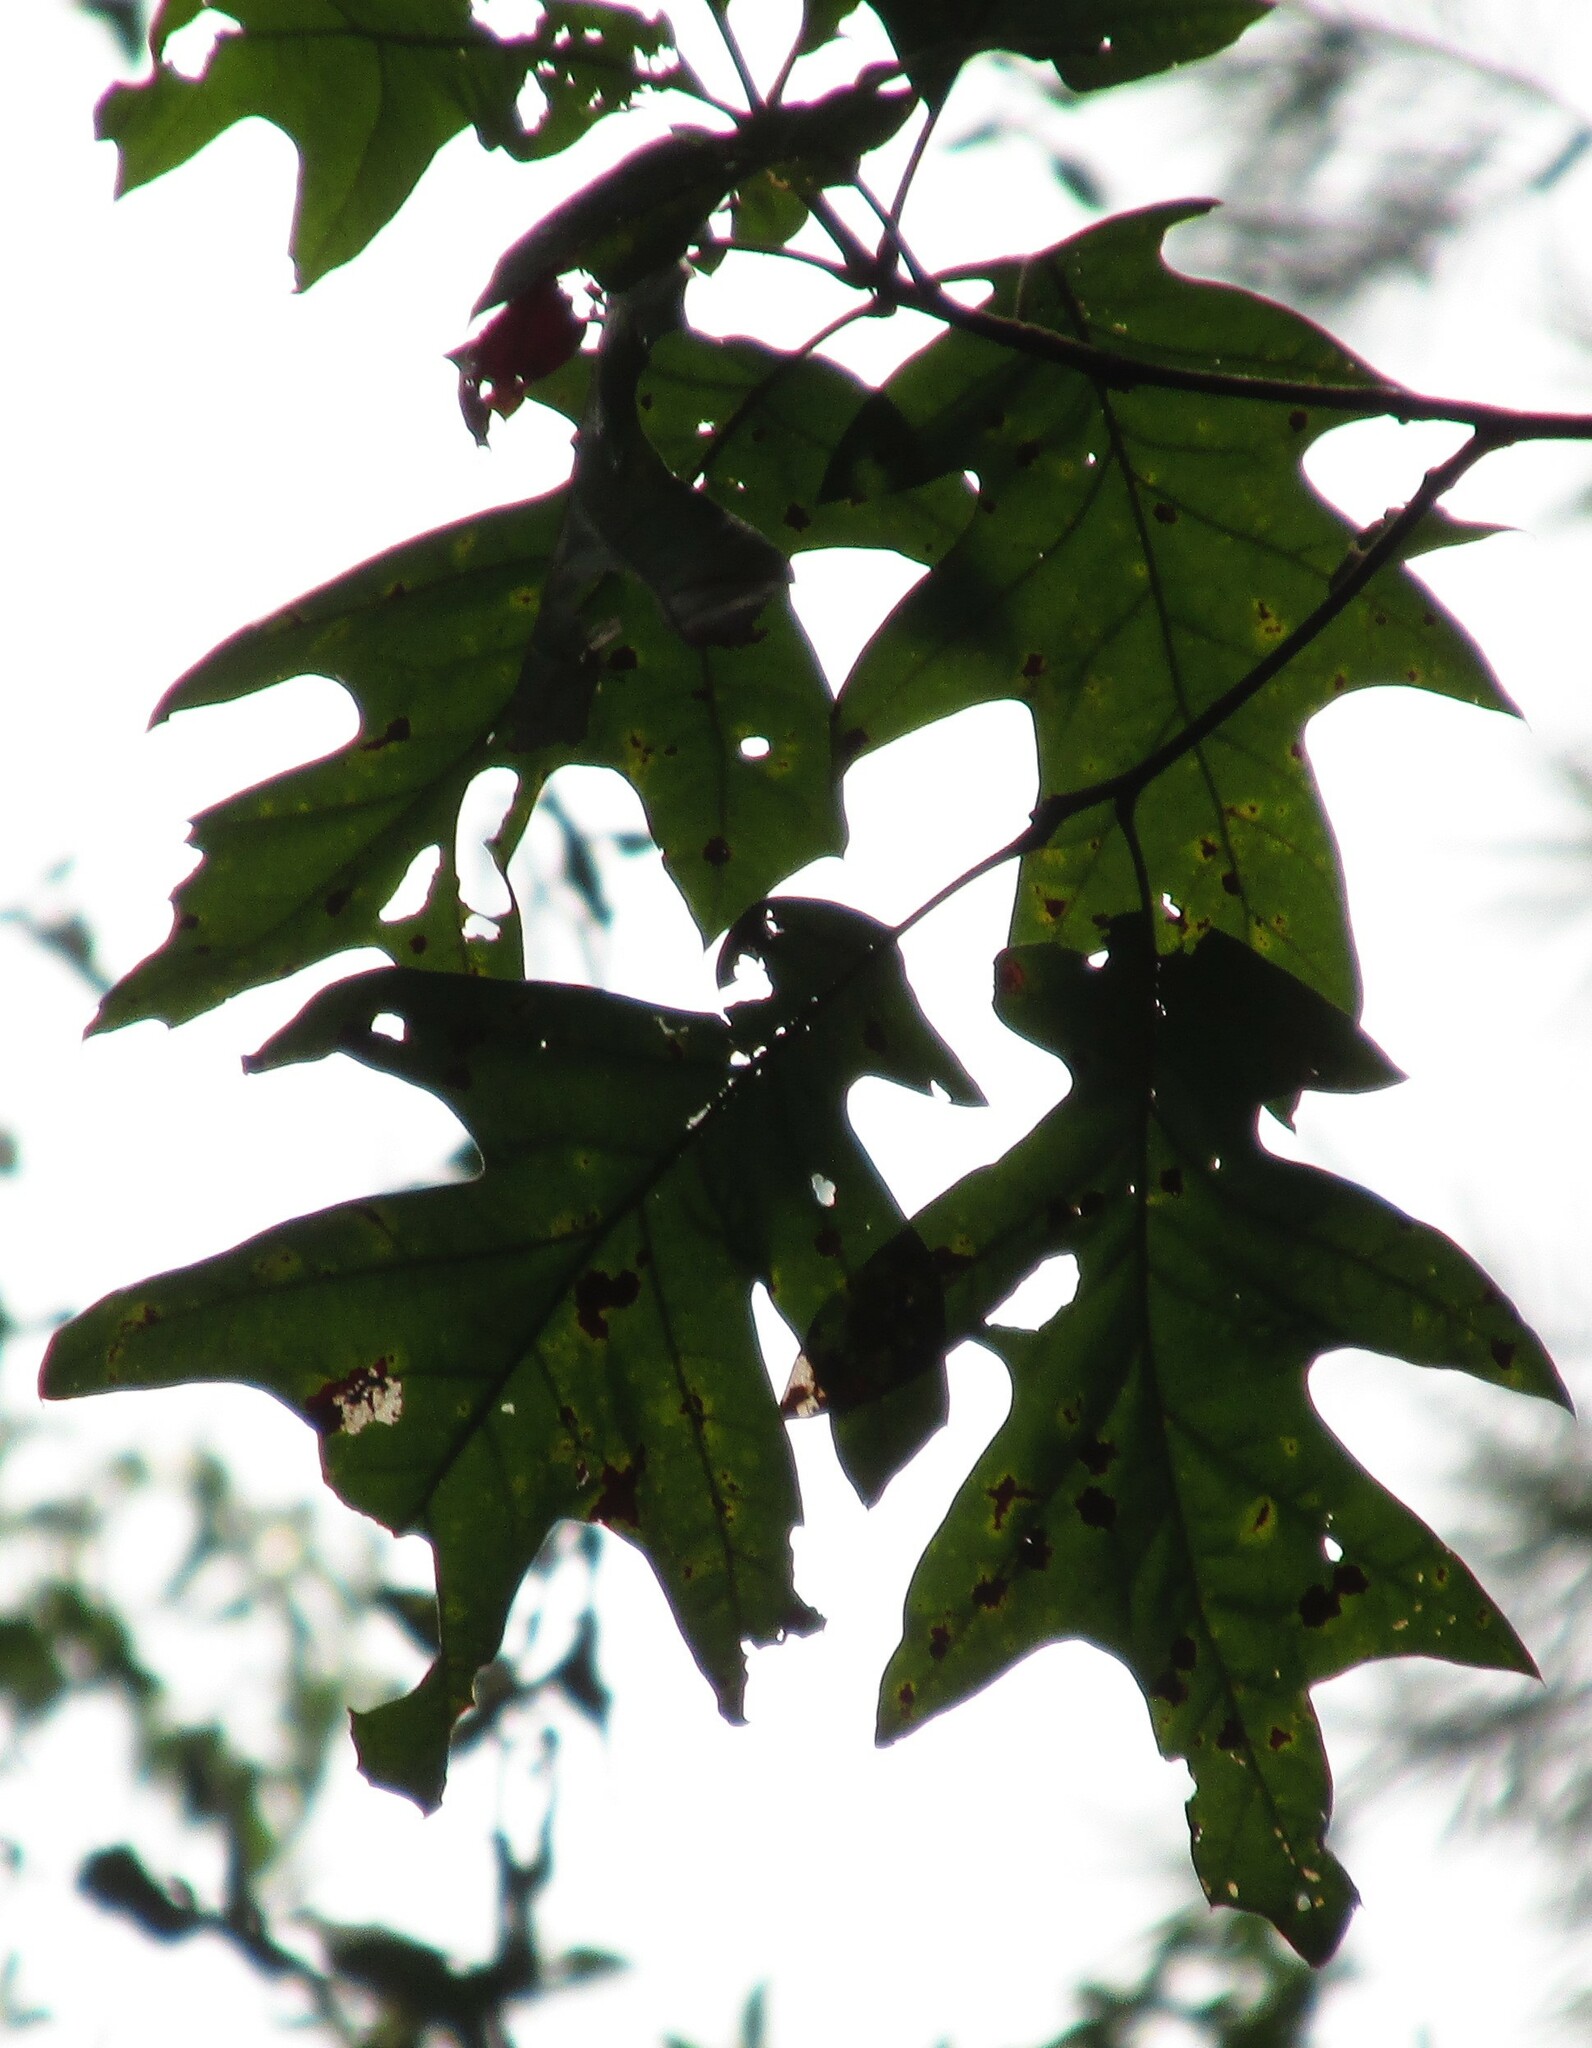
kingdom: Plantae
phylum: Tracheophyta
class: Magnoliopsida
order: Fagales
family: Fagaceae
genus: Quercus
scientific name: Quercus pagoda
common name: Cherrybark oak
